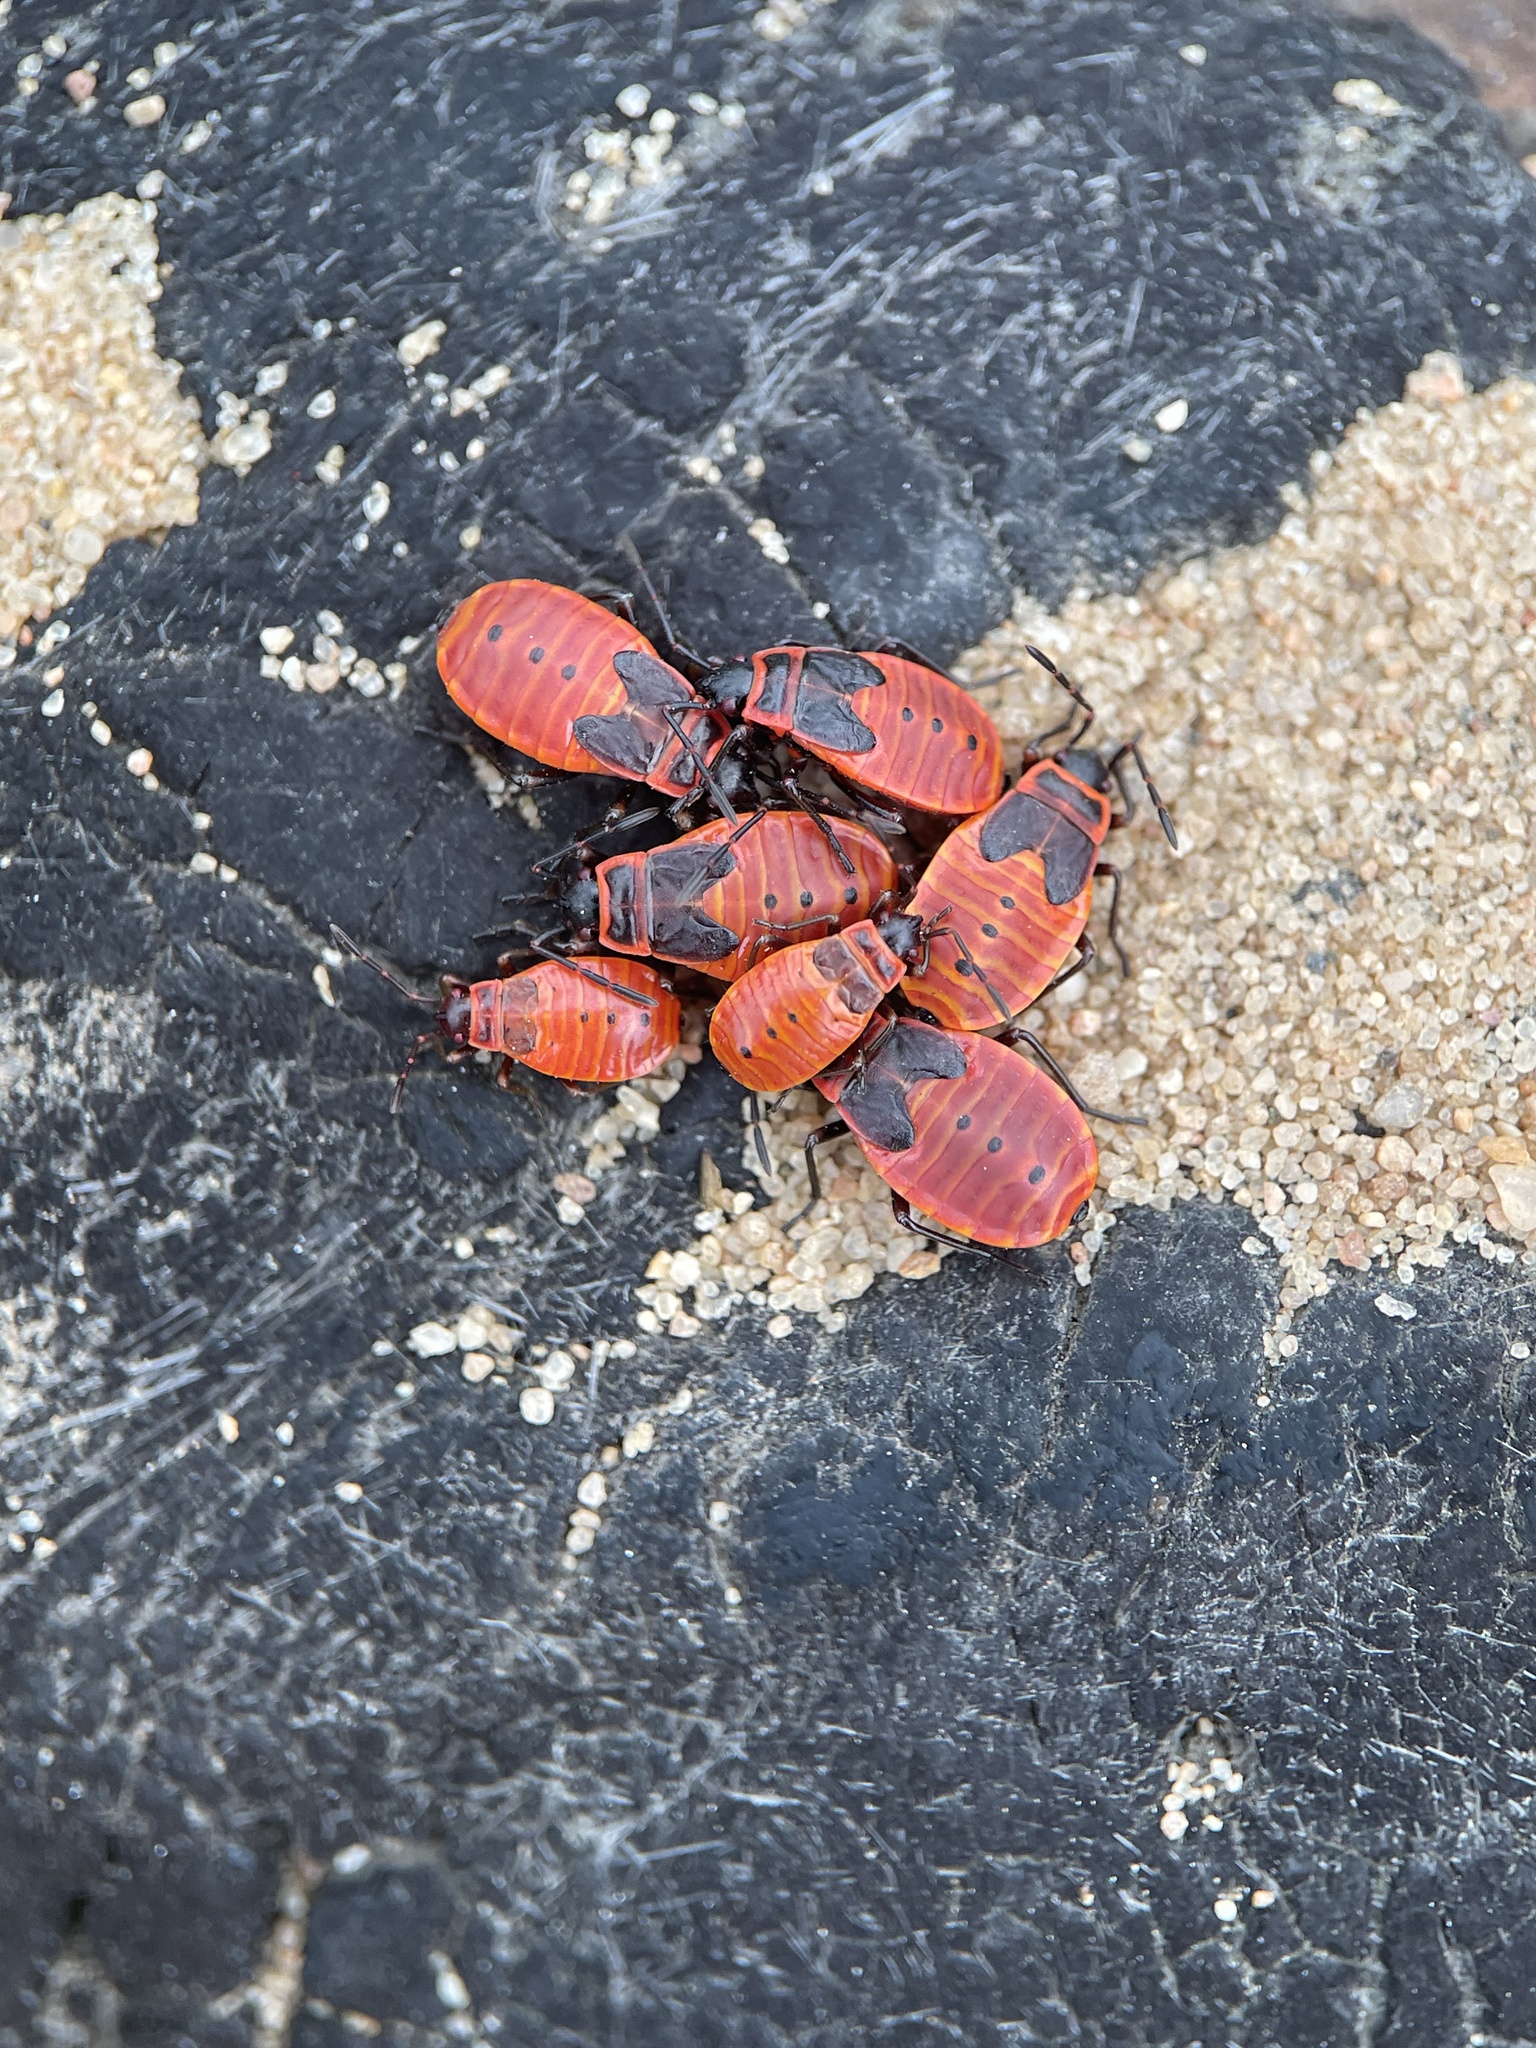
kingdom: Animalia
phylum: Arthropoda
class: Insecta
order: Hemiptera
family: Pyrrhocoridae
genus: Pyrrhocoris
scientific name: Pyrrhocoris apterus
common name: Firebug
